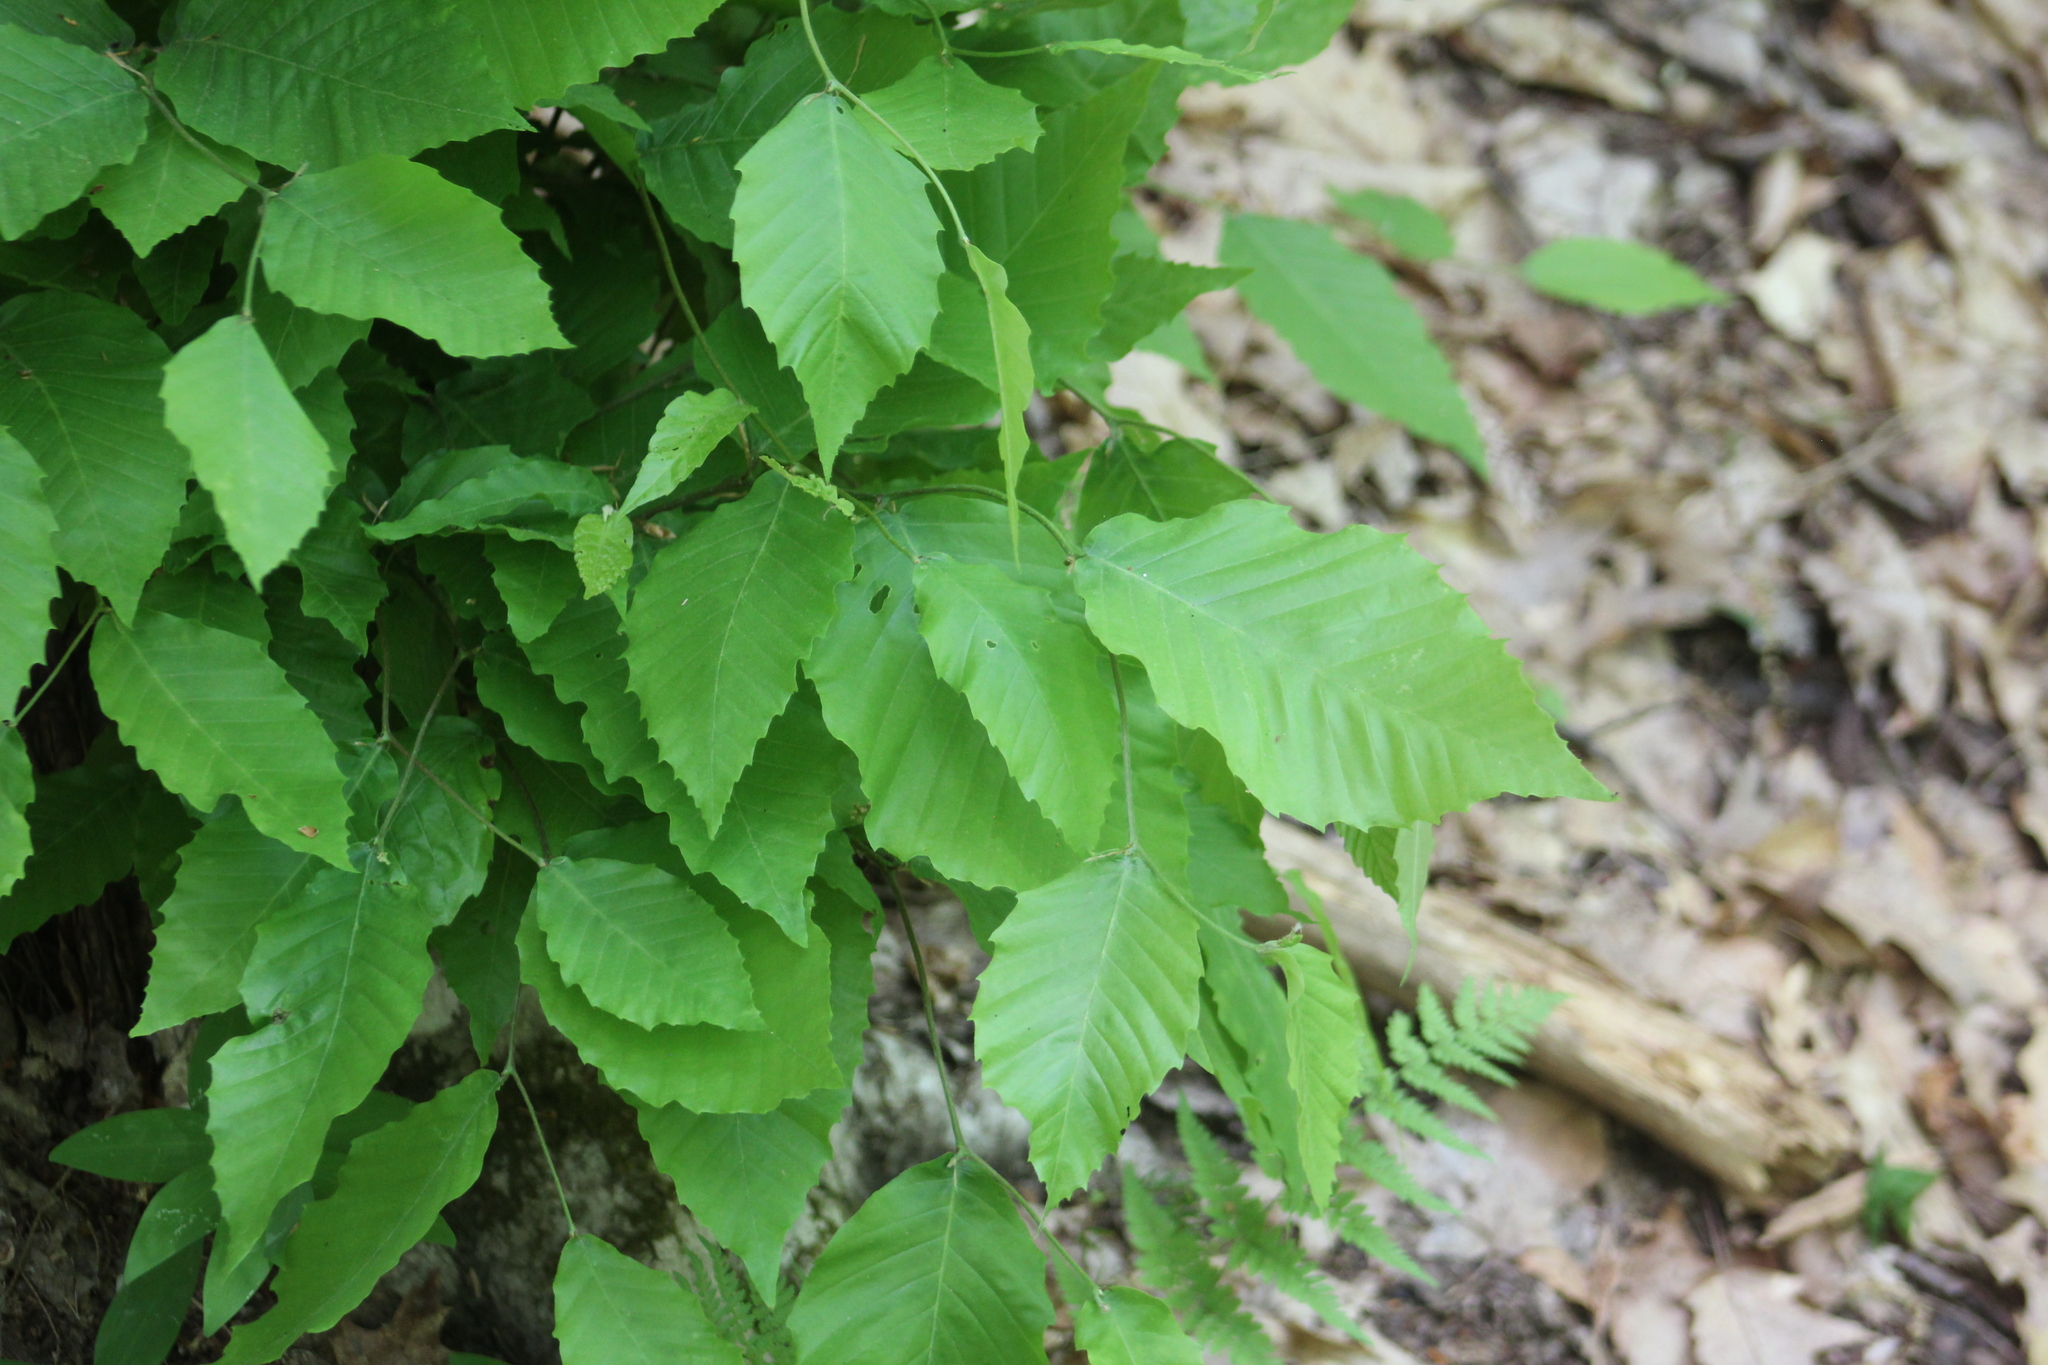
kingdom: Plantae
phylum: Tracheophyta
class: Magnoliopsida
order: Fagales
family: Fagaceae
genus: Fagus
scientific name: Fagus grandifolia
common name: American beech
